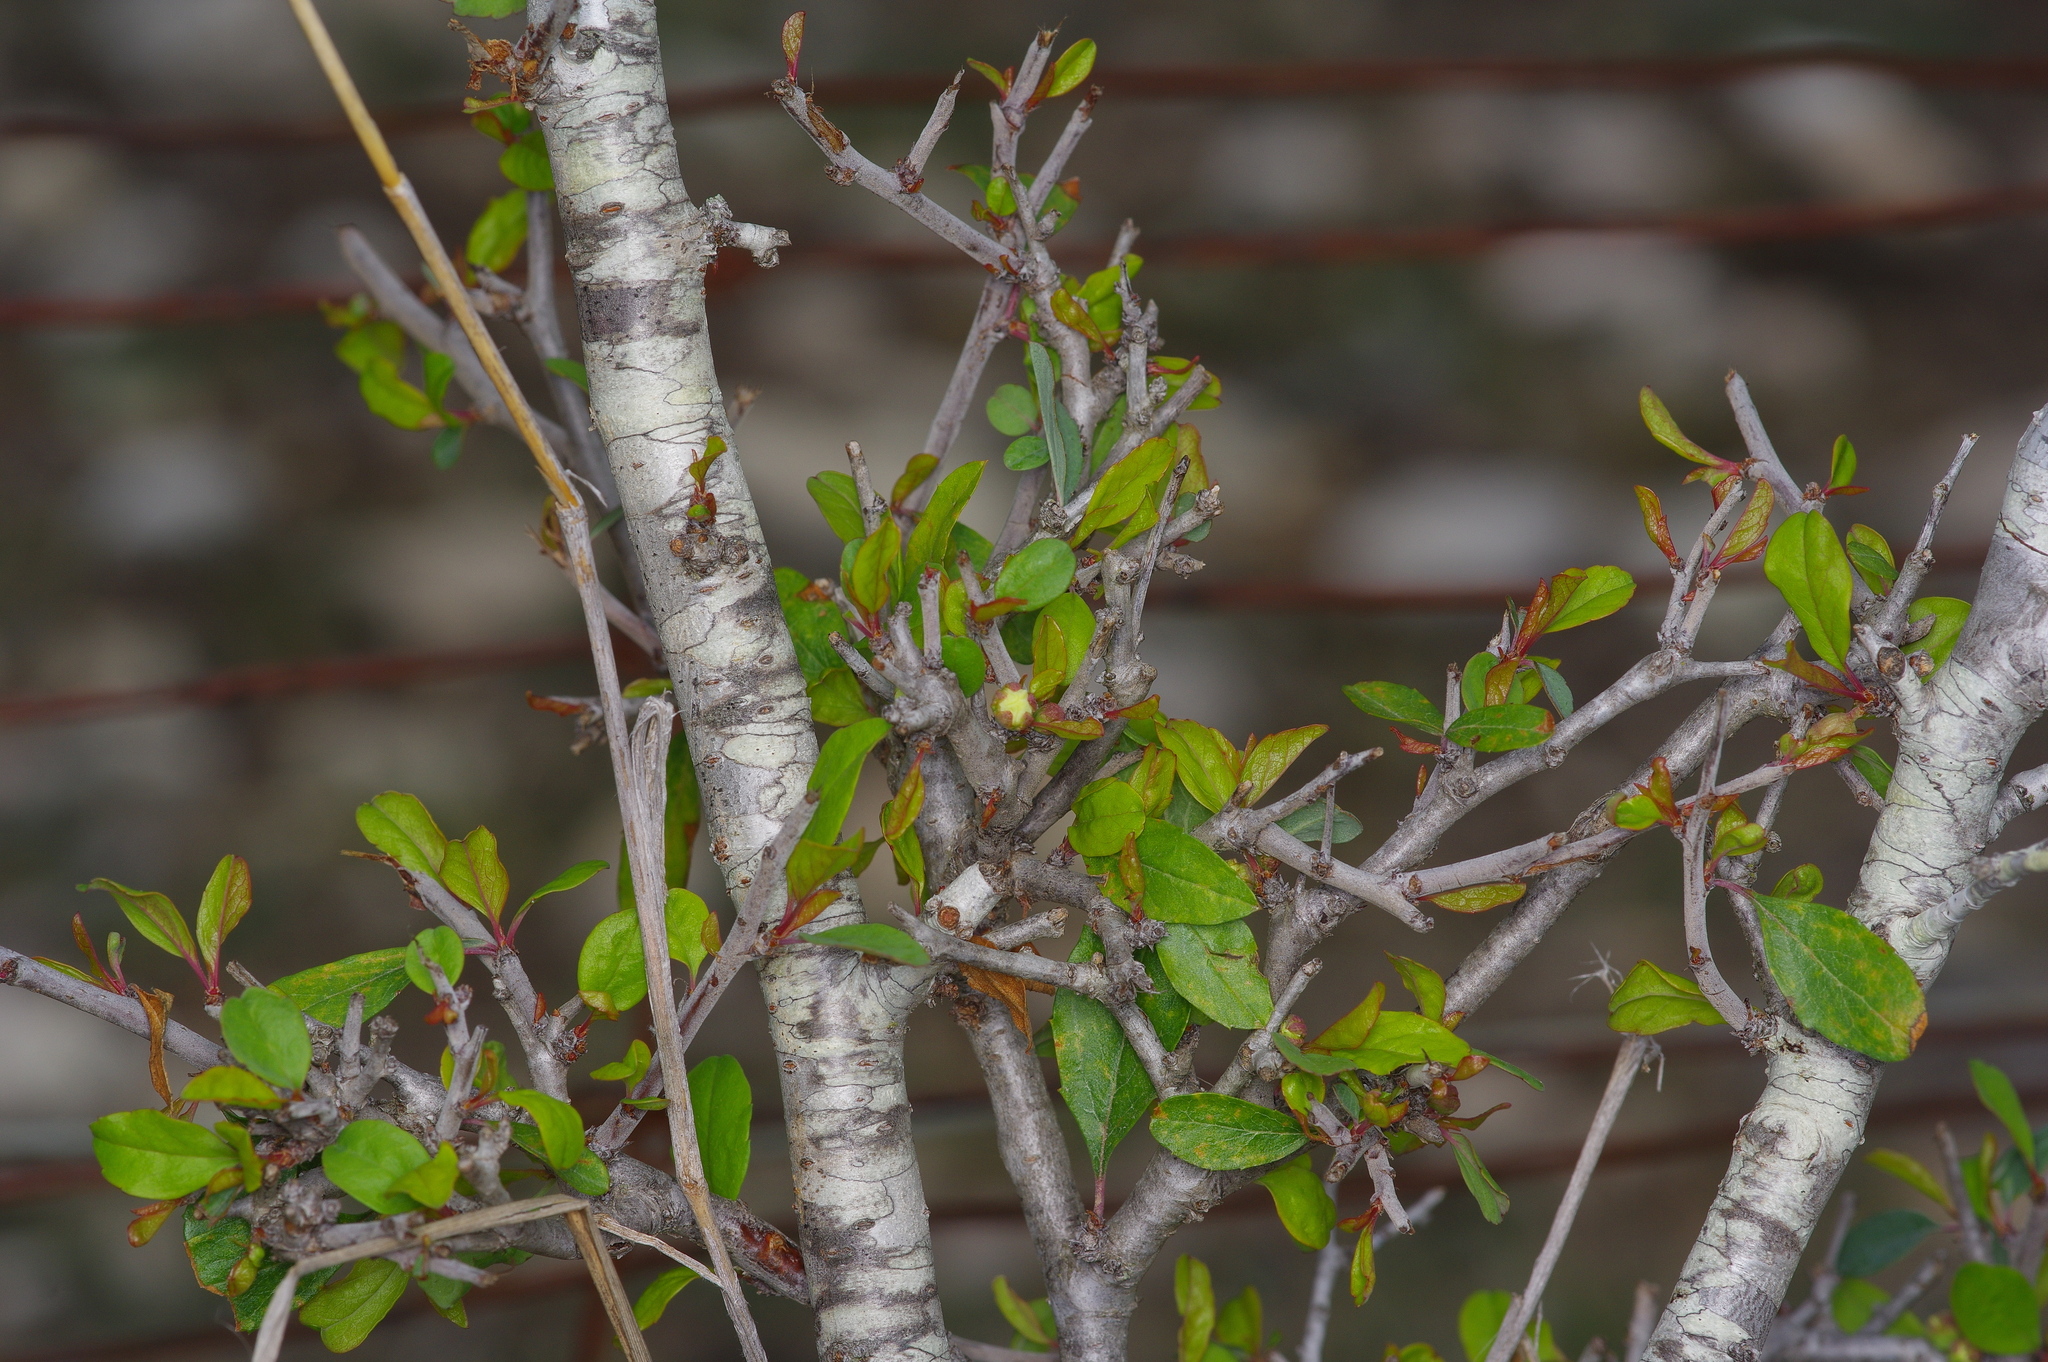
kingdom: Plantae
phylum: Tracheophyta
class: Magnoliopsida
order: Rosales
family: Rosaceae
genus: Prunus
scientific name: Prunus minutiflora
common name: Texas almond
